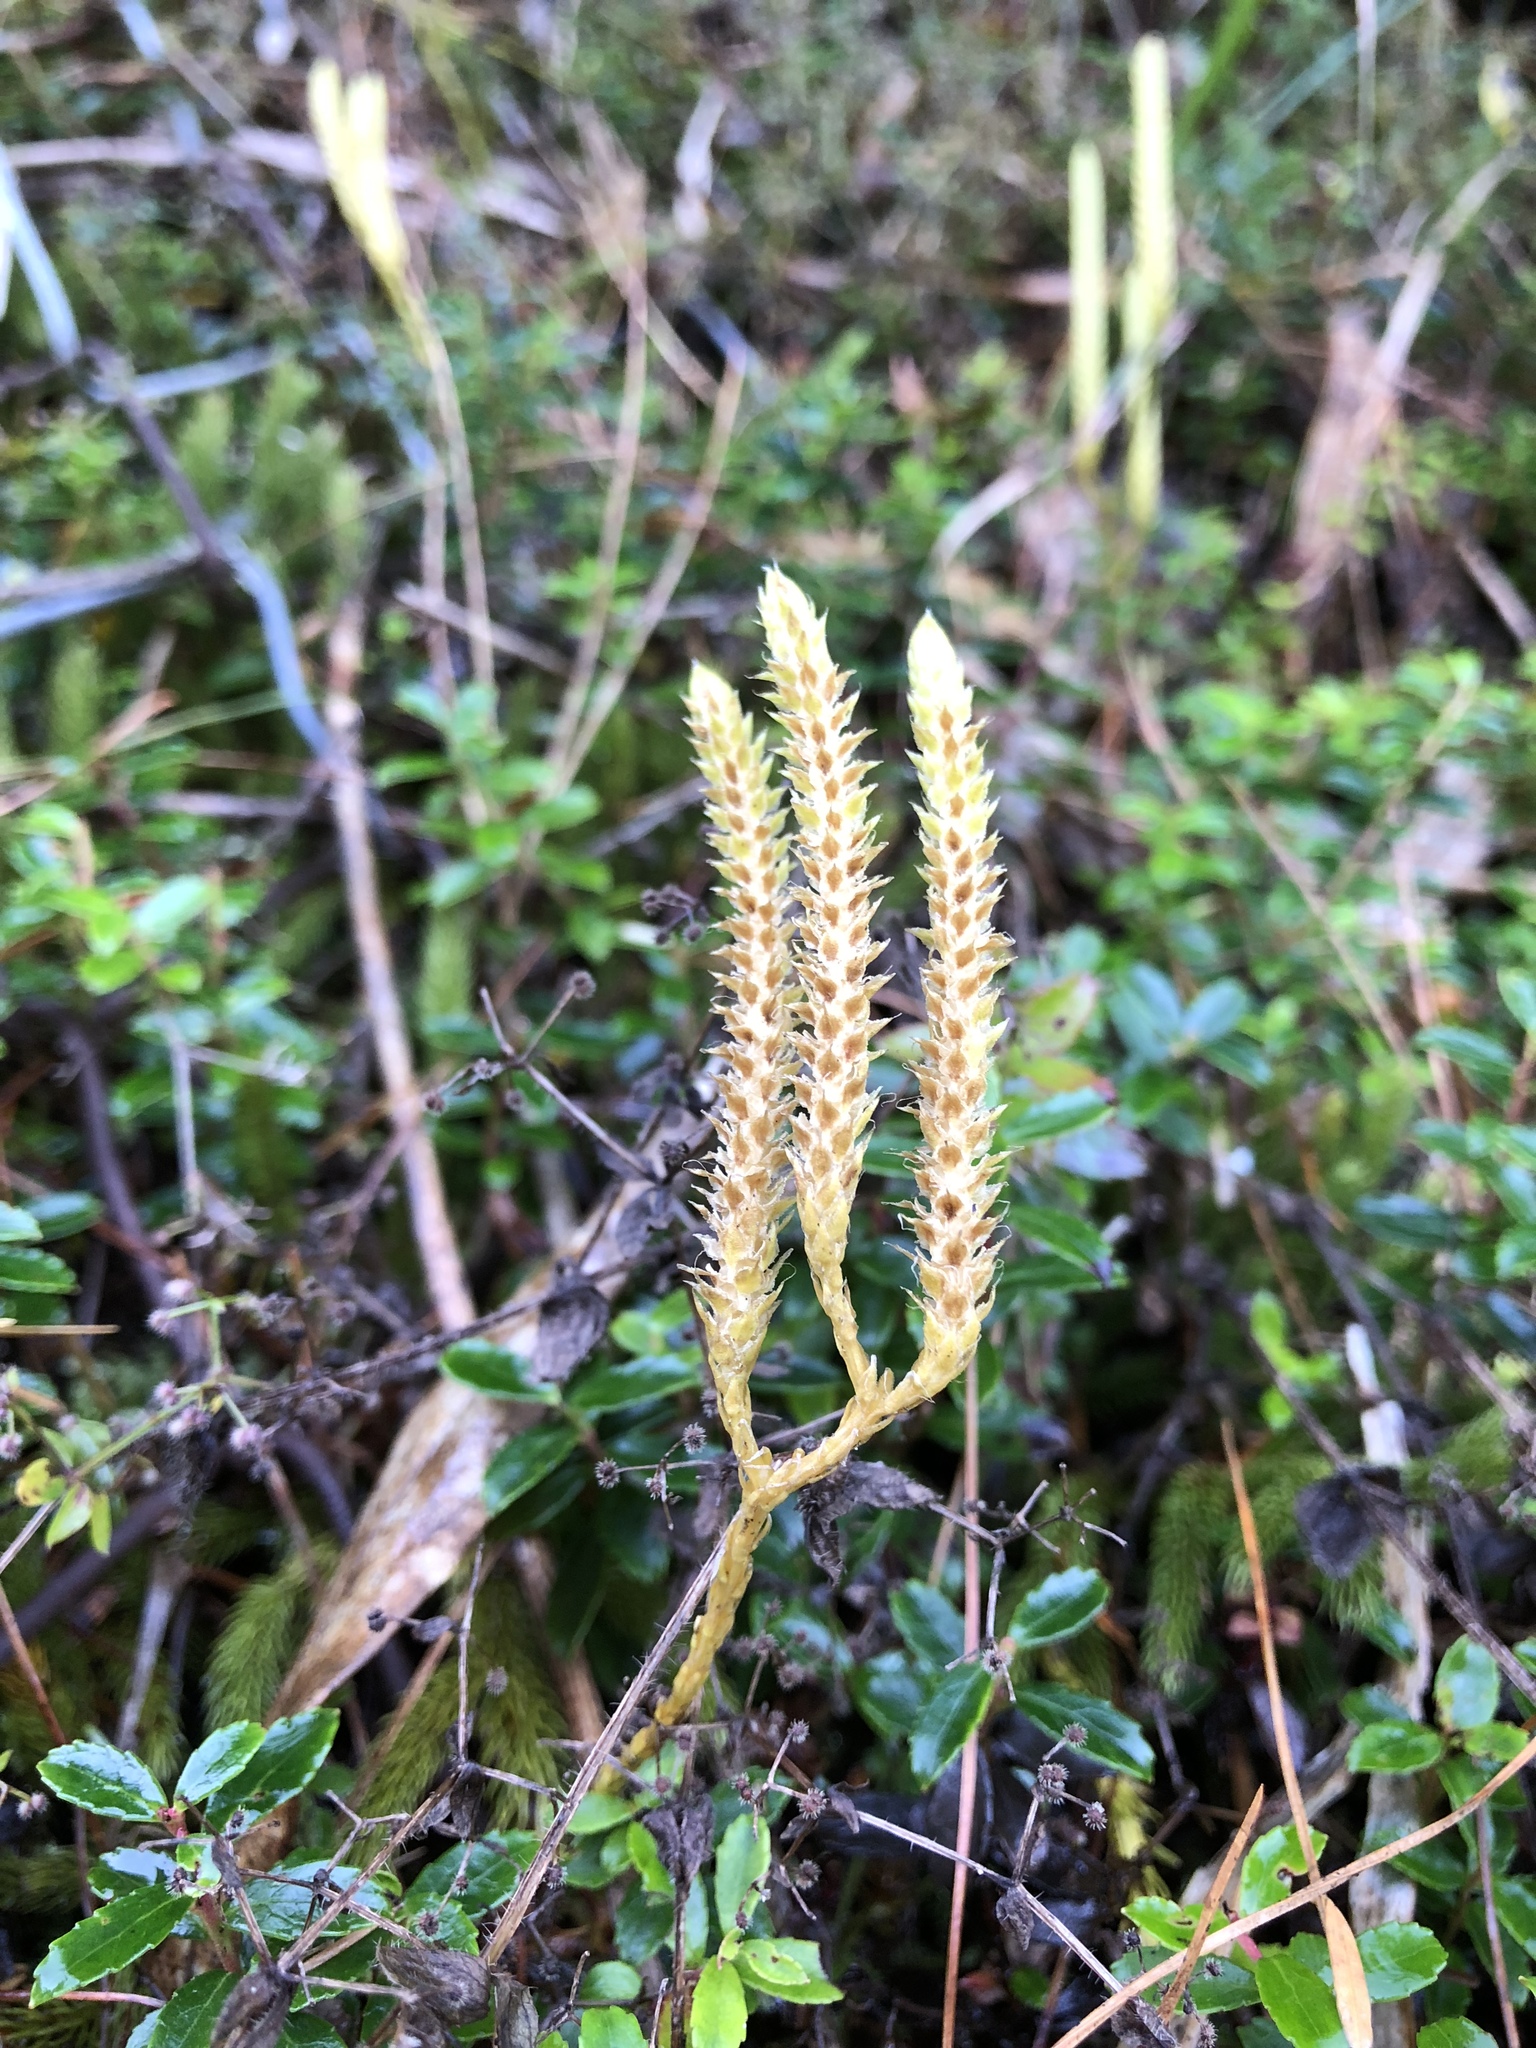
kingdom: Plantae
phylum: Tracheophyta
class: Lycopodiopsida
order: Lycopodiales
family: Lycopodiaceae
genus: Lycopodium
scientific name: Lycopodium clavatum
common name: Stag's-horn clubmoss
